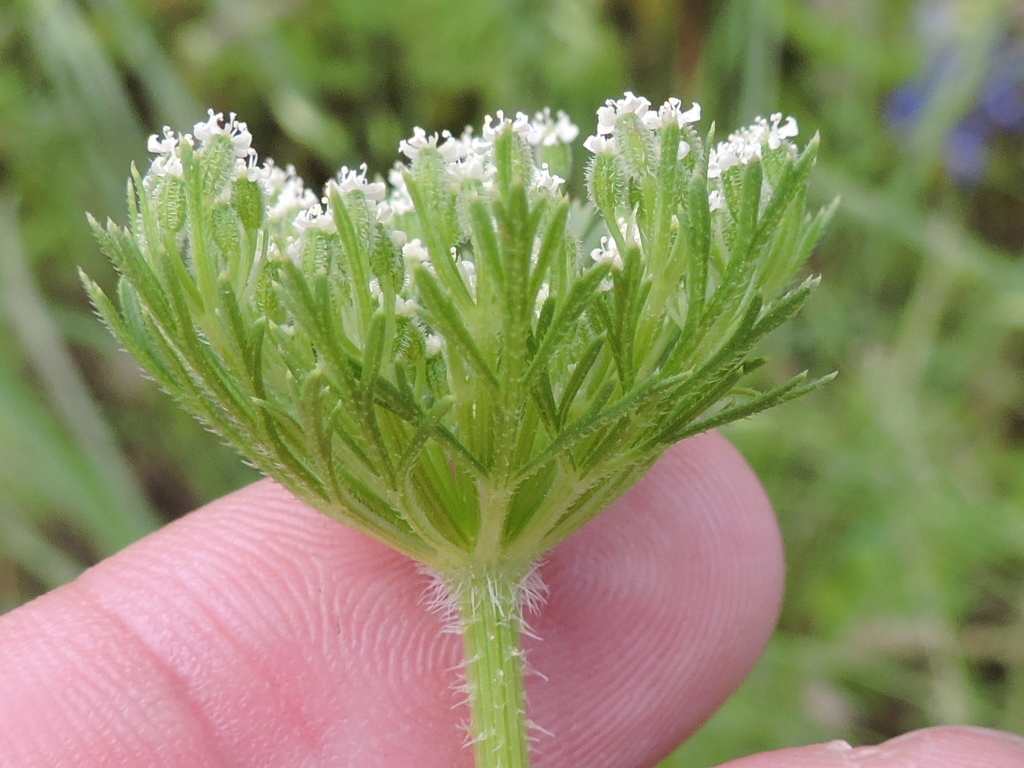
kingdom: Plantae
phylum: Tracheophyta
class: Magnoliopsida
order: Apiales
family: Apiaceae
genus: Daucus
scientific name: Daucus pusillus
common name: Southwest wild carrot
